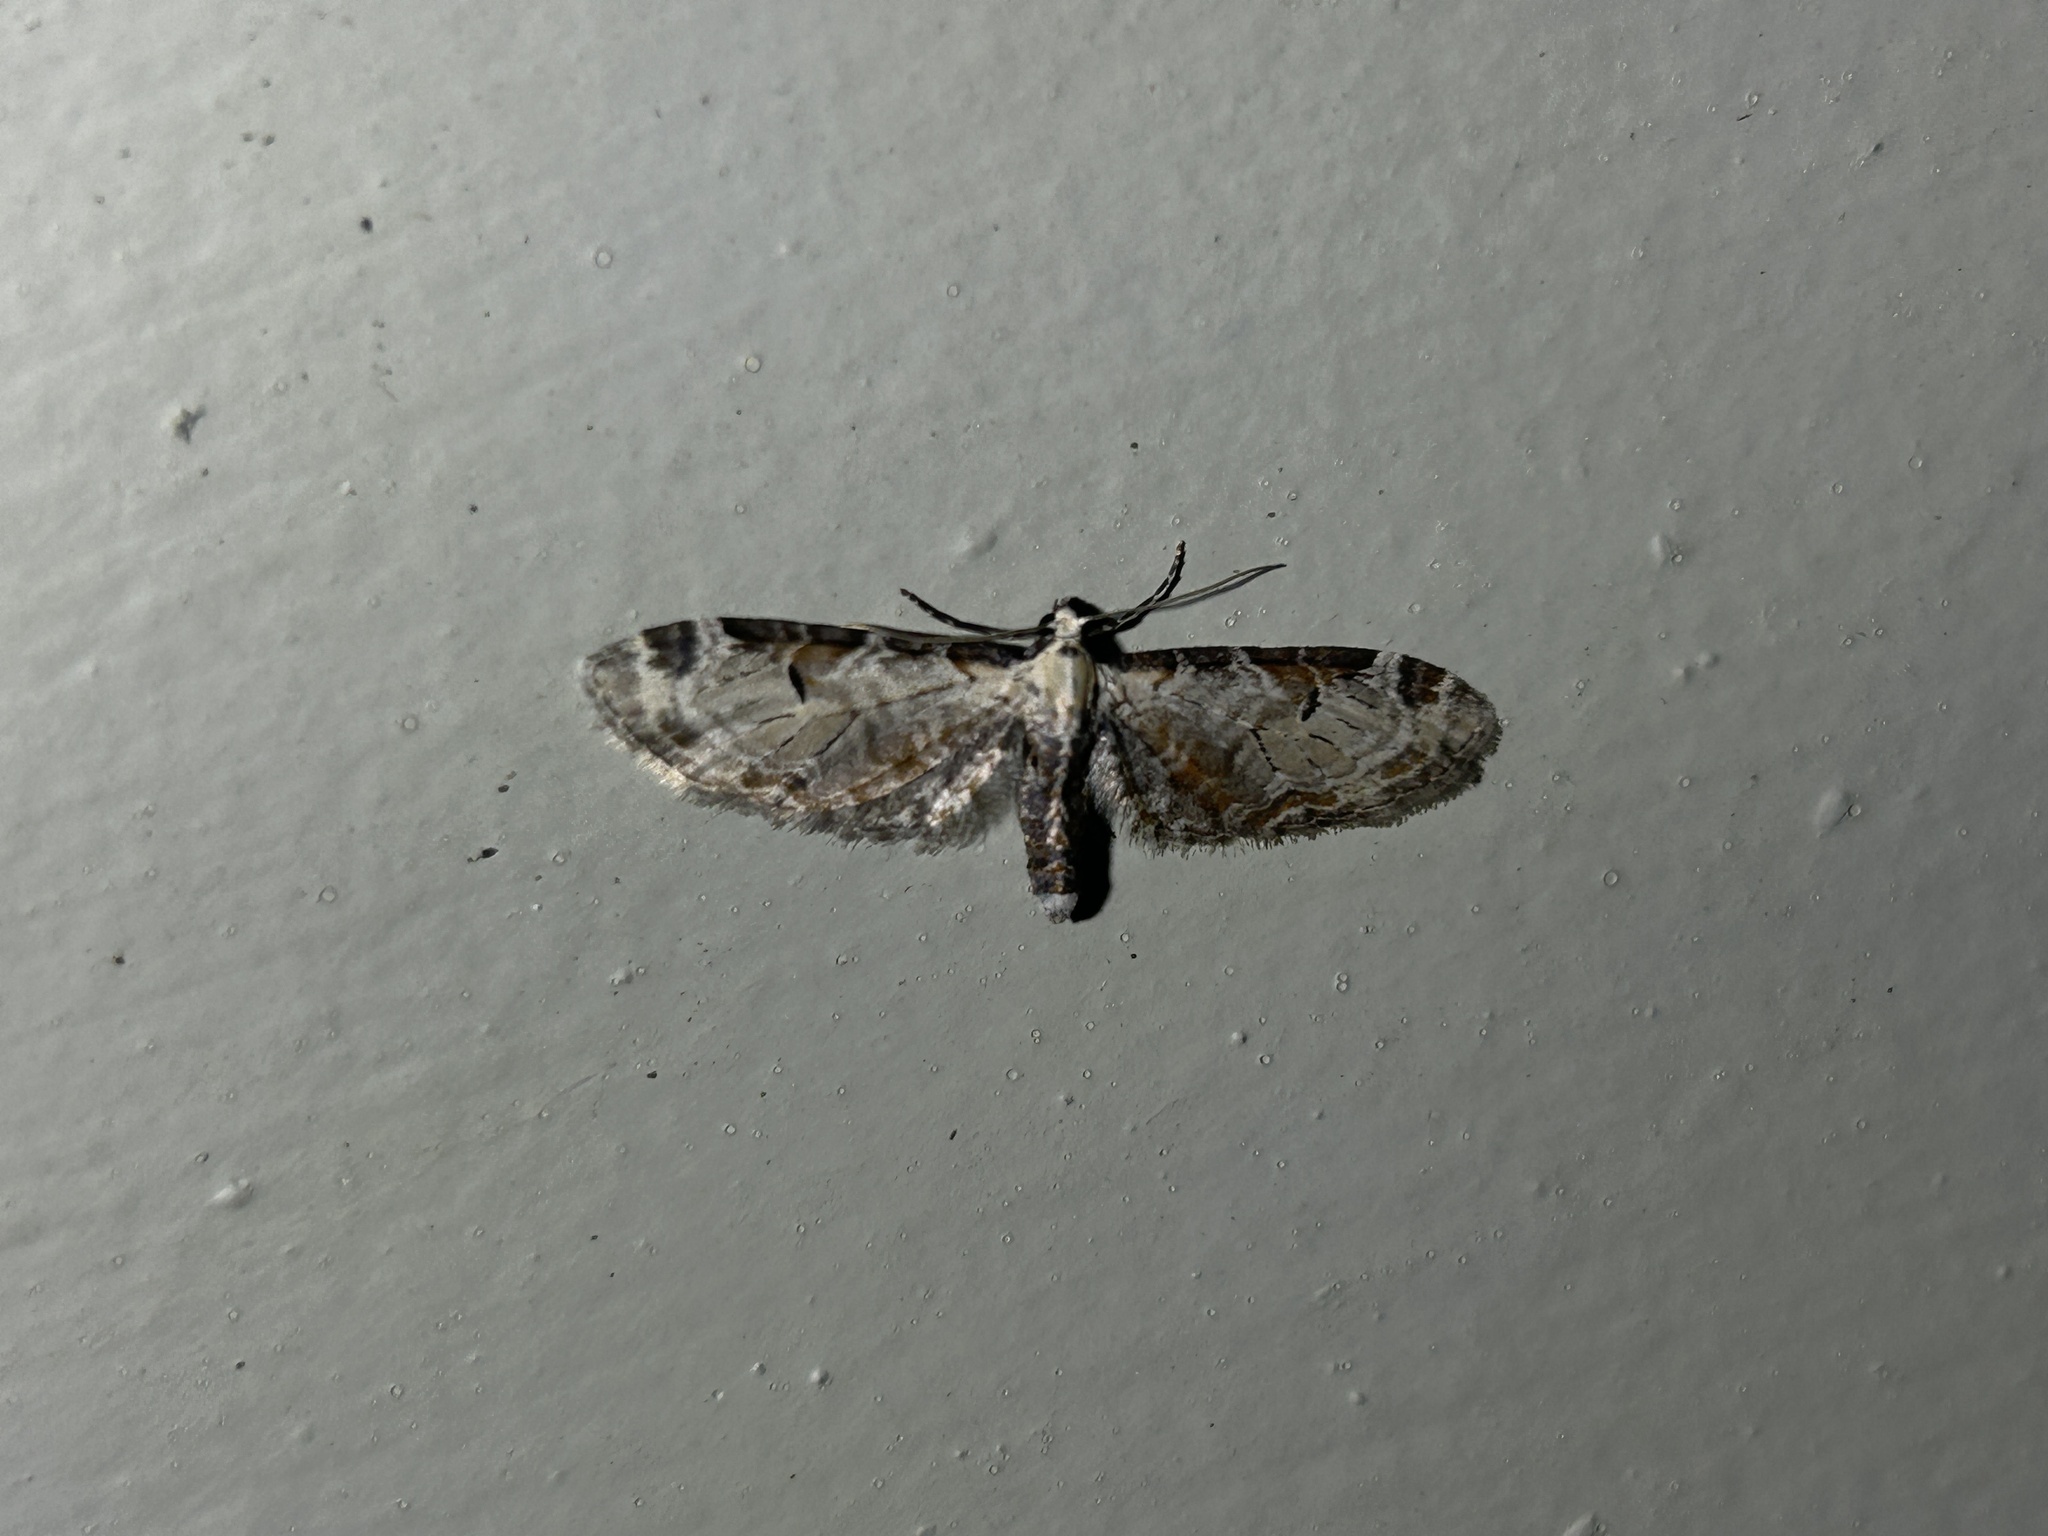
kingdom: Animalia
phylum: Arthropoda
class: Insecta
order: Lepidoptera
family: Geometridae
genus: Eupithecia
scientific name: Eupithecia ravocostaliata
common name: Great varigated pug
